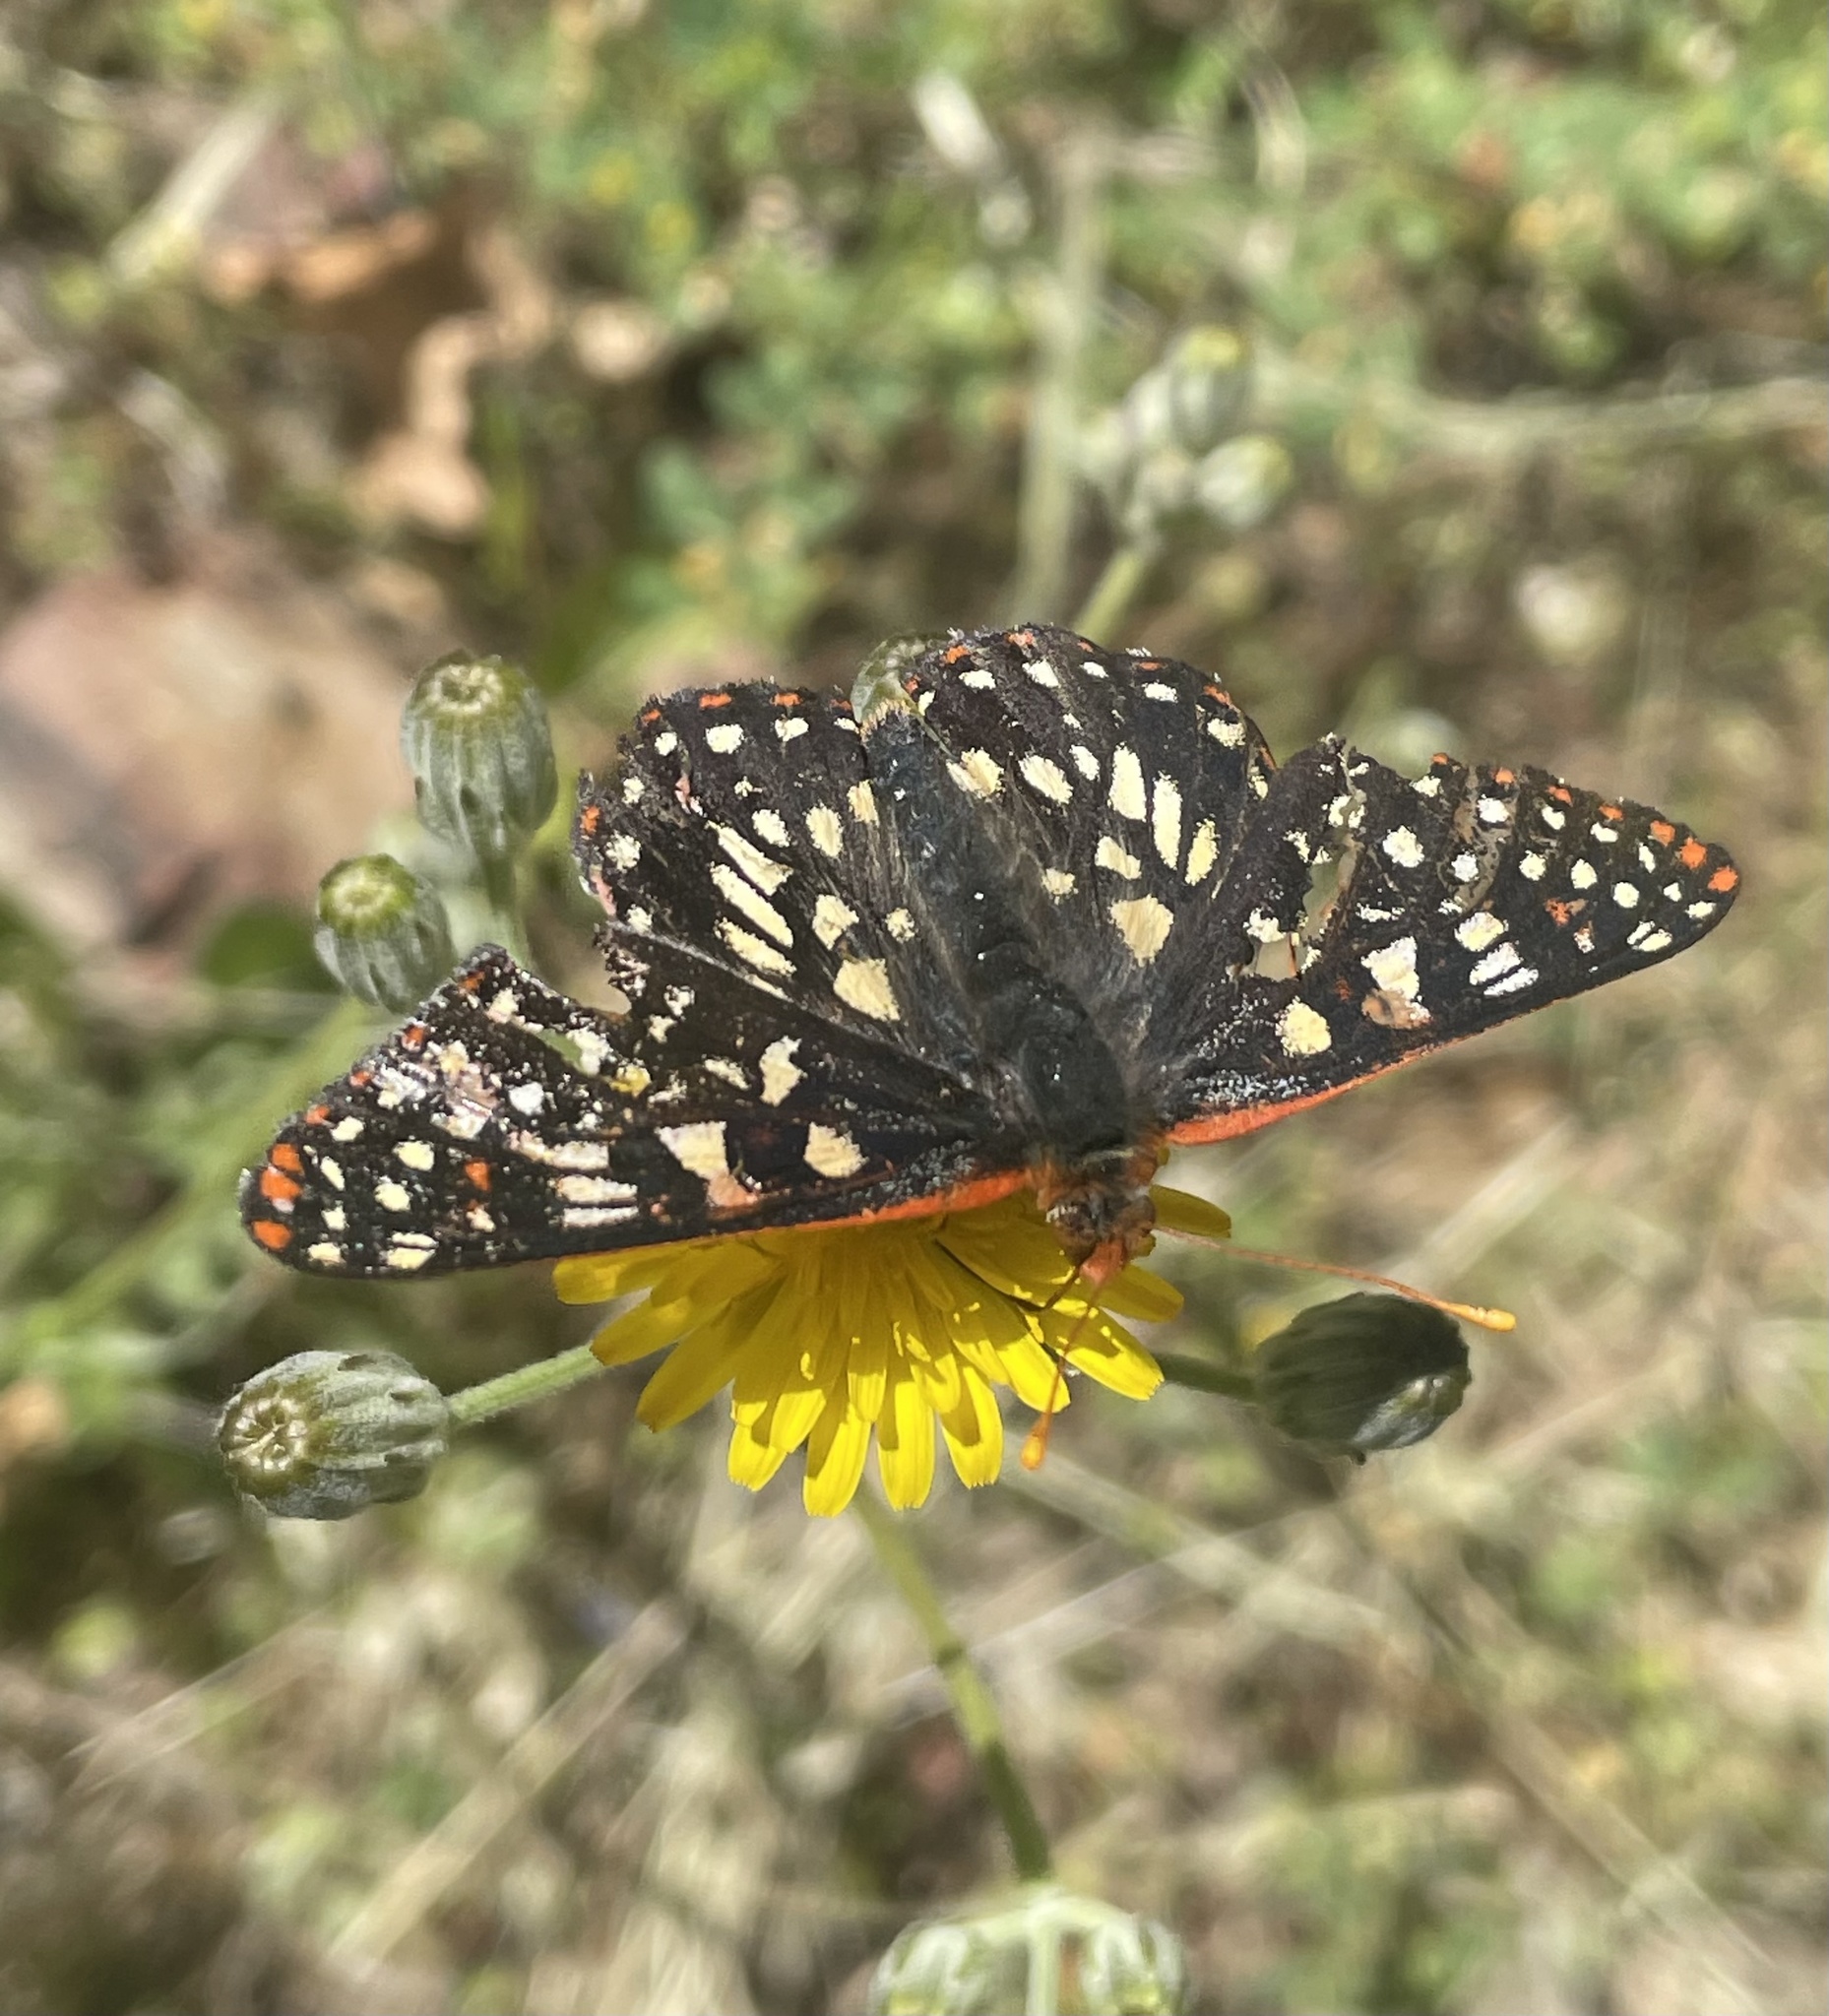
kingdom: Animalia
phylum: Arthropoda
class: Insecta
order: Lepidoptera
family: Nymphalidae
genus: Occidryas
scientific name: Occidryas chalcedona
